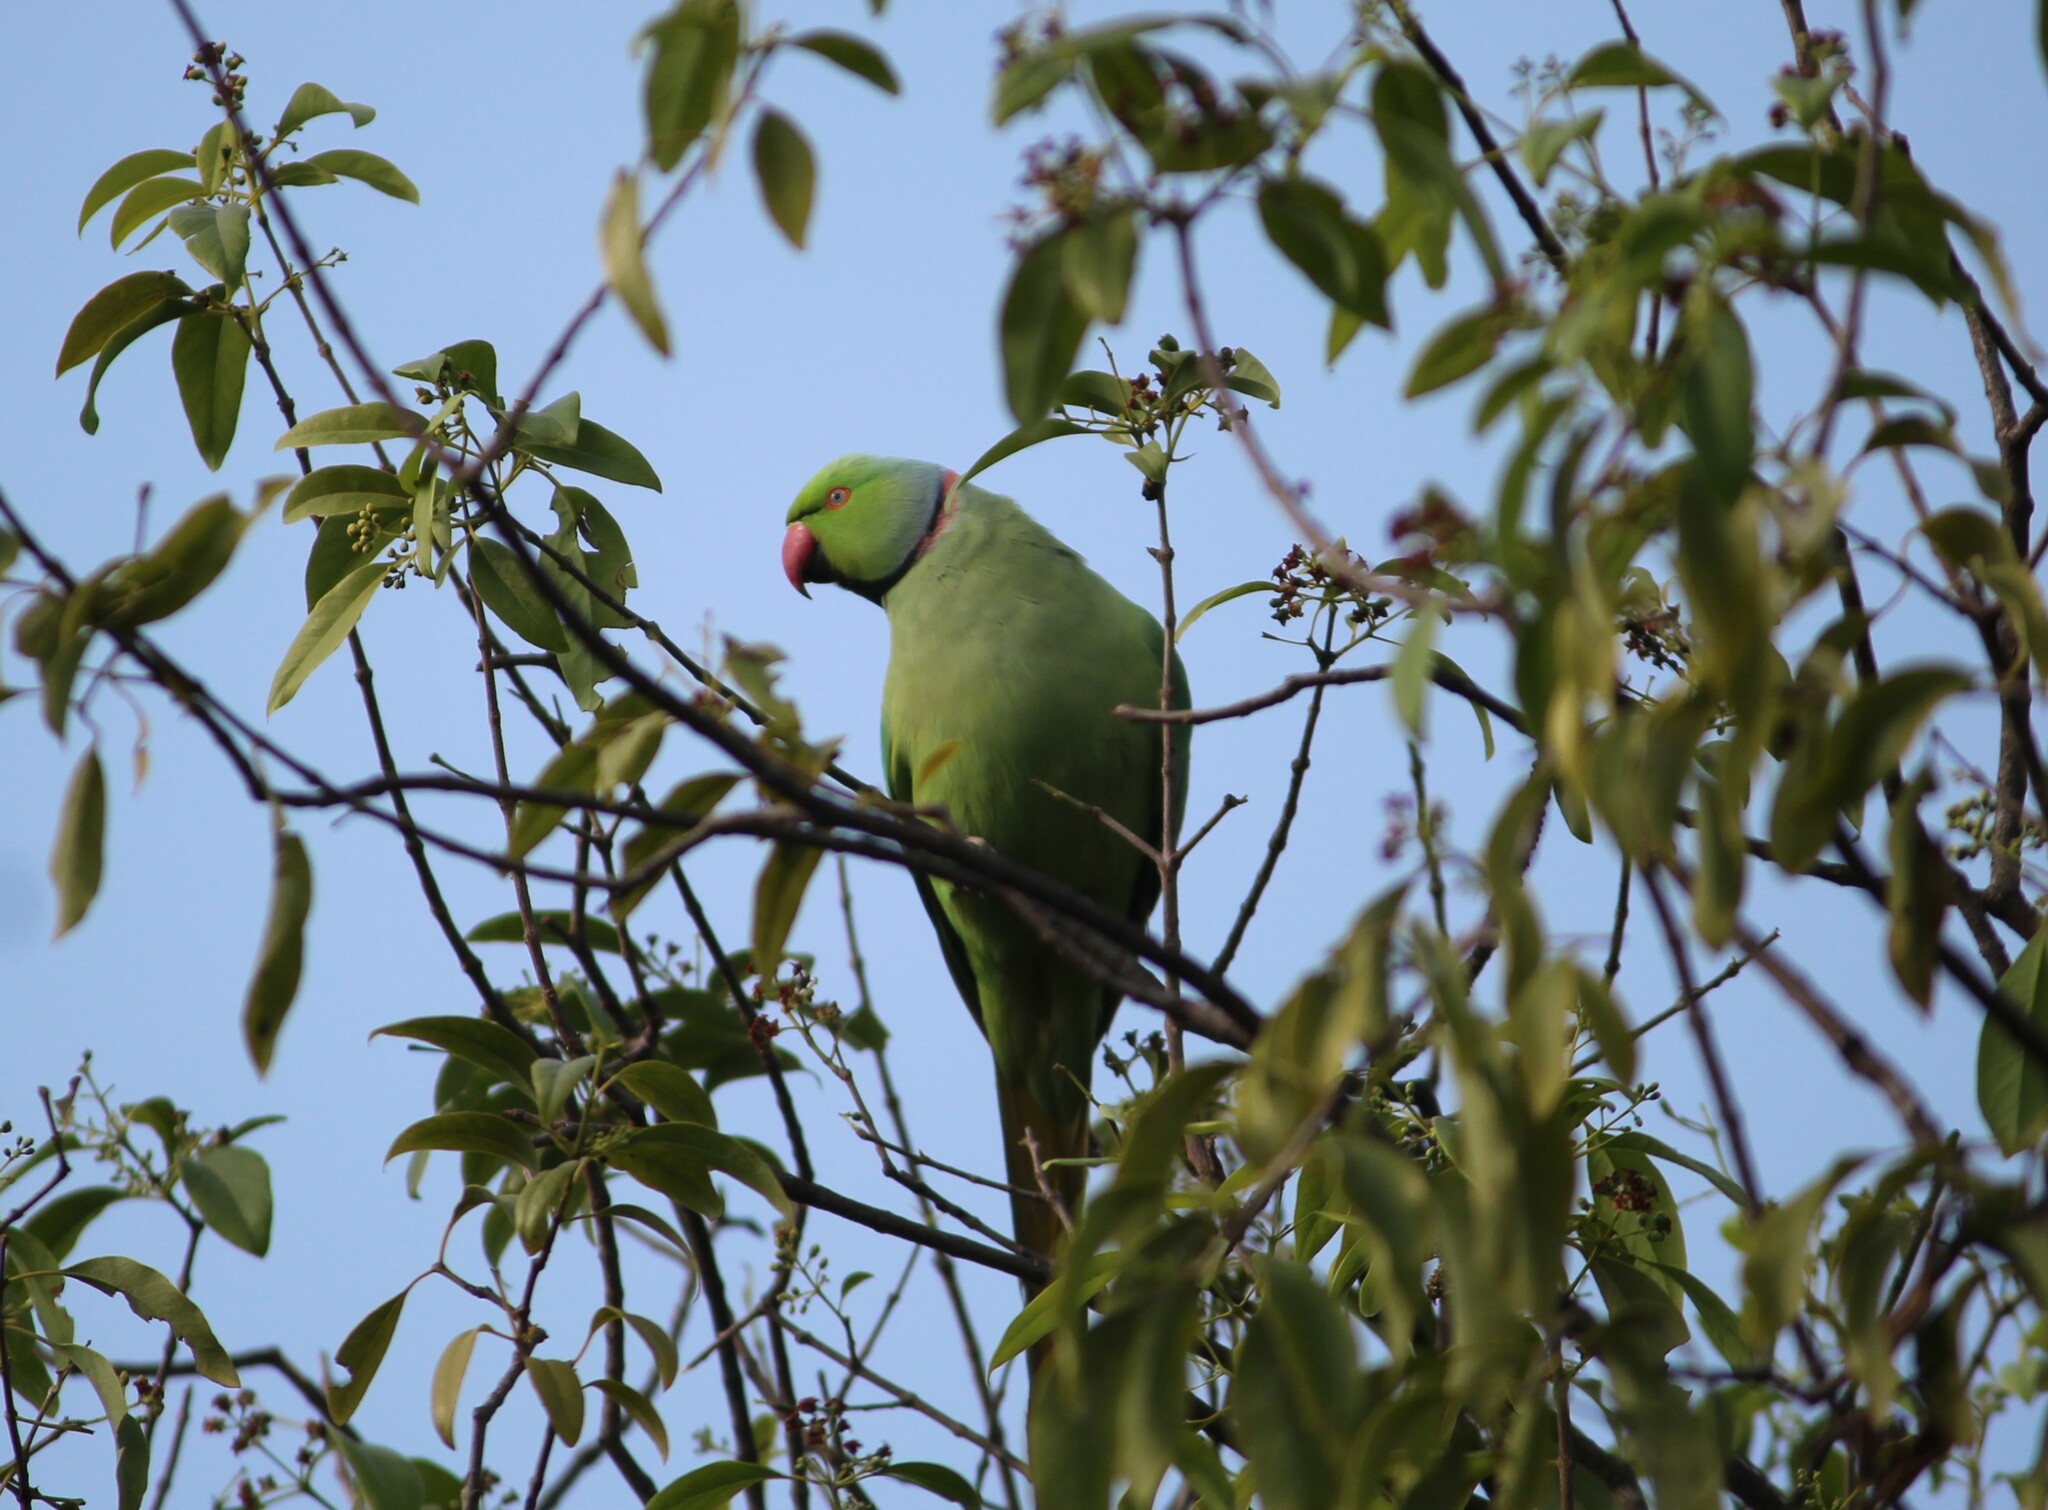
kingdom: Animalia
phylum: Chordata
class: Aves
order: Psittaciformes
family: Psittacidae
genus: Psittacula
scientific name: Psittacula krameri
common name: Rose-ringed parakeet
